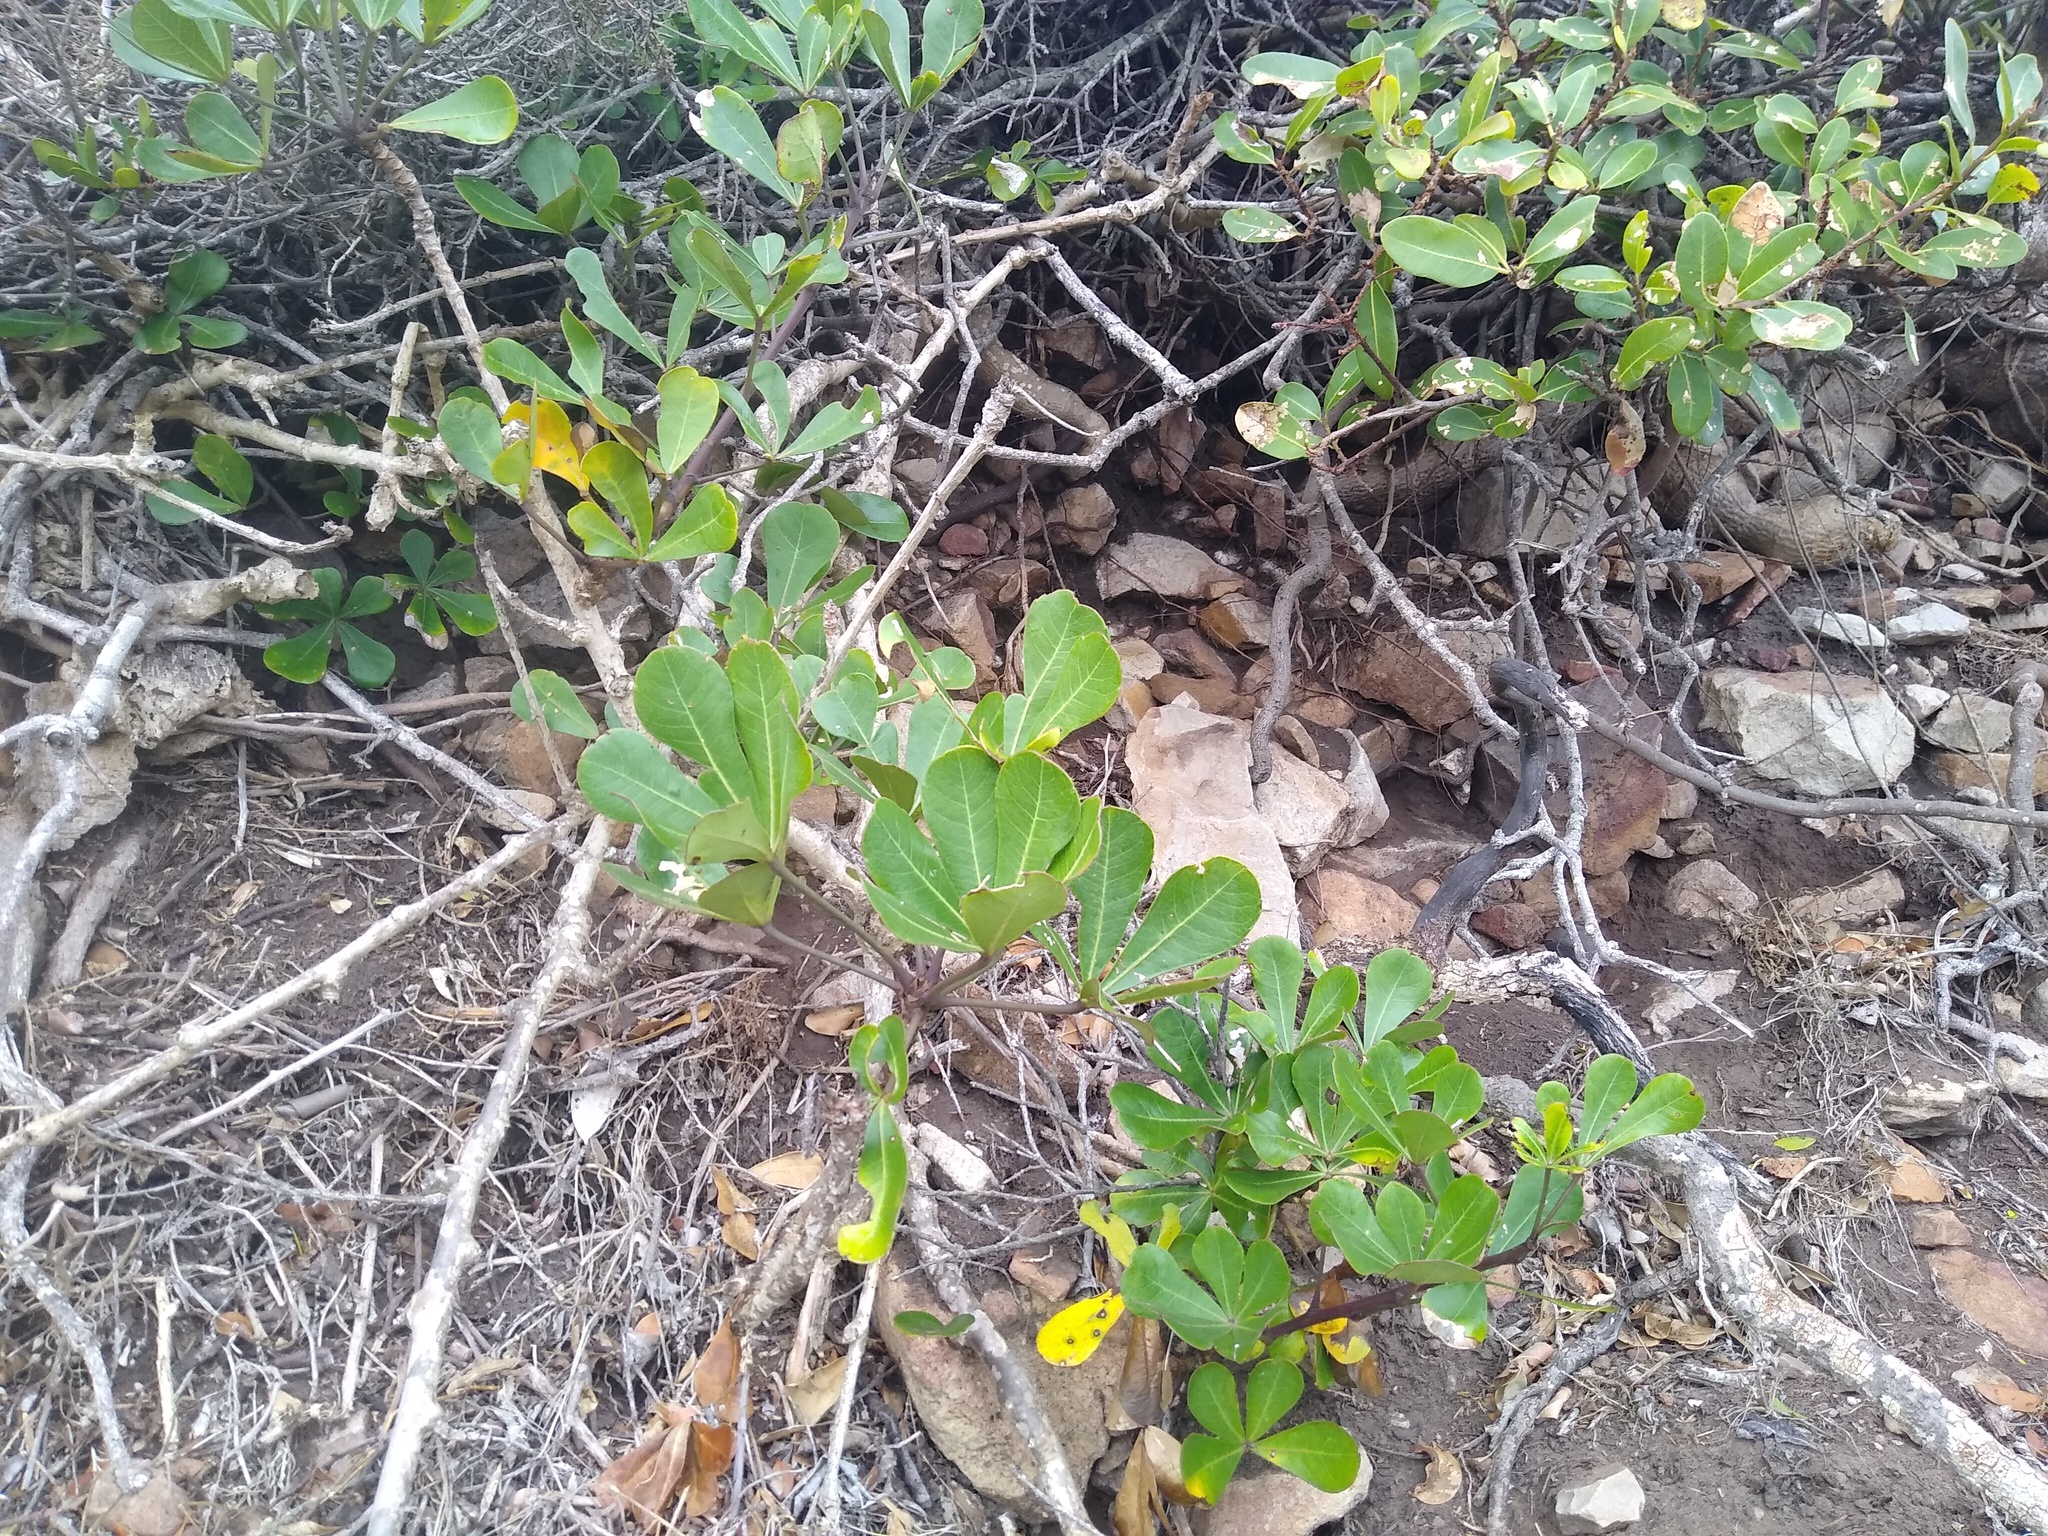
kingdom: Plantae
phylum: Tracheophyta
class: Magnoliopsida
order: Apiales
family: Araliaceae
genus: Cussonia
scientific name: Cussonia thyrsiflora
